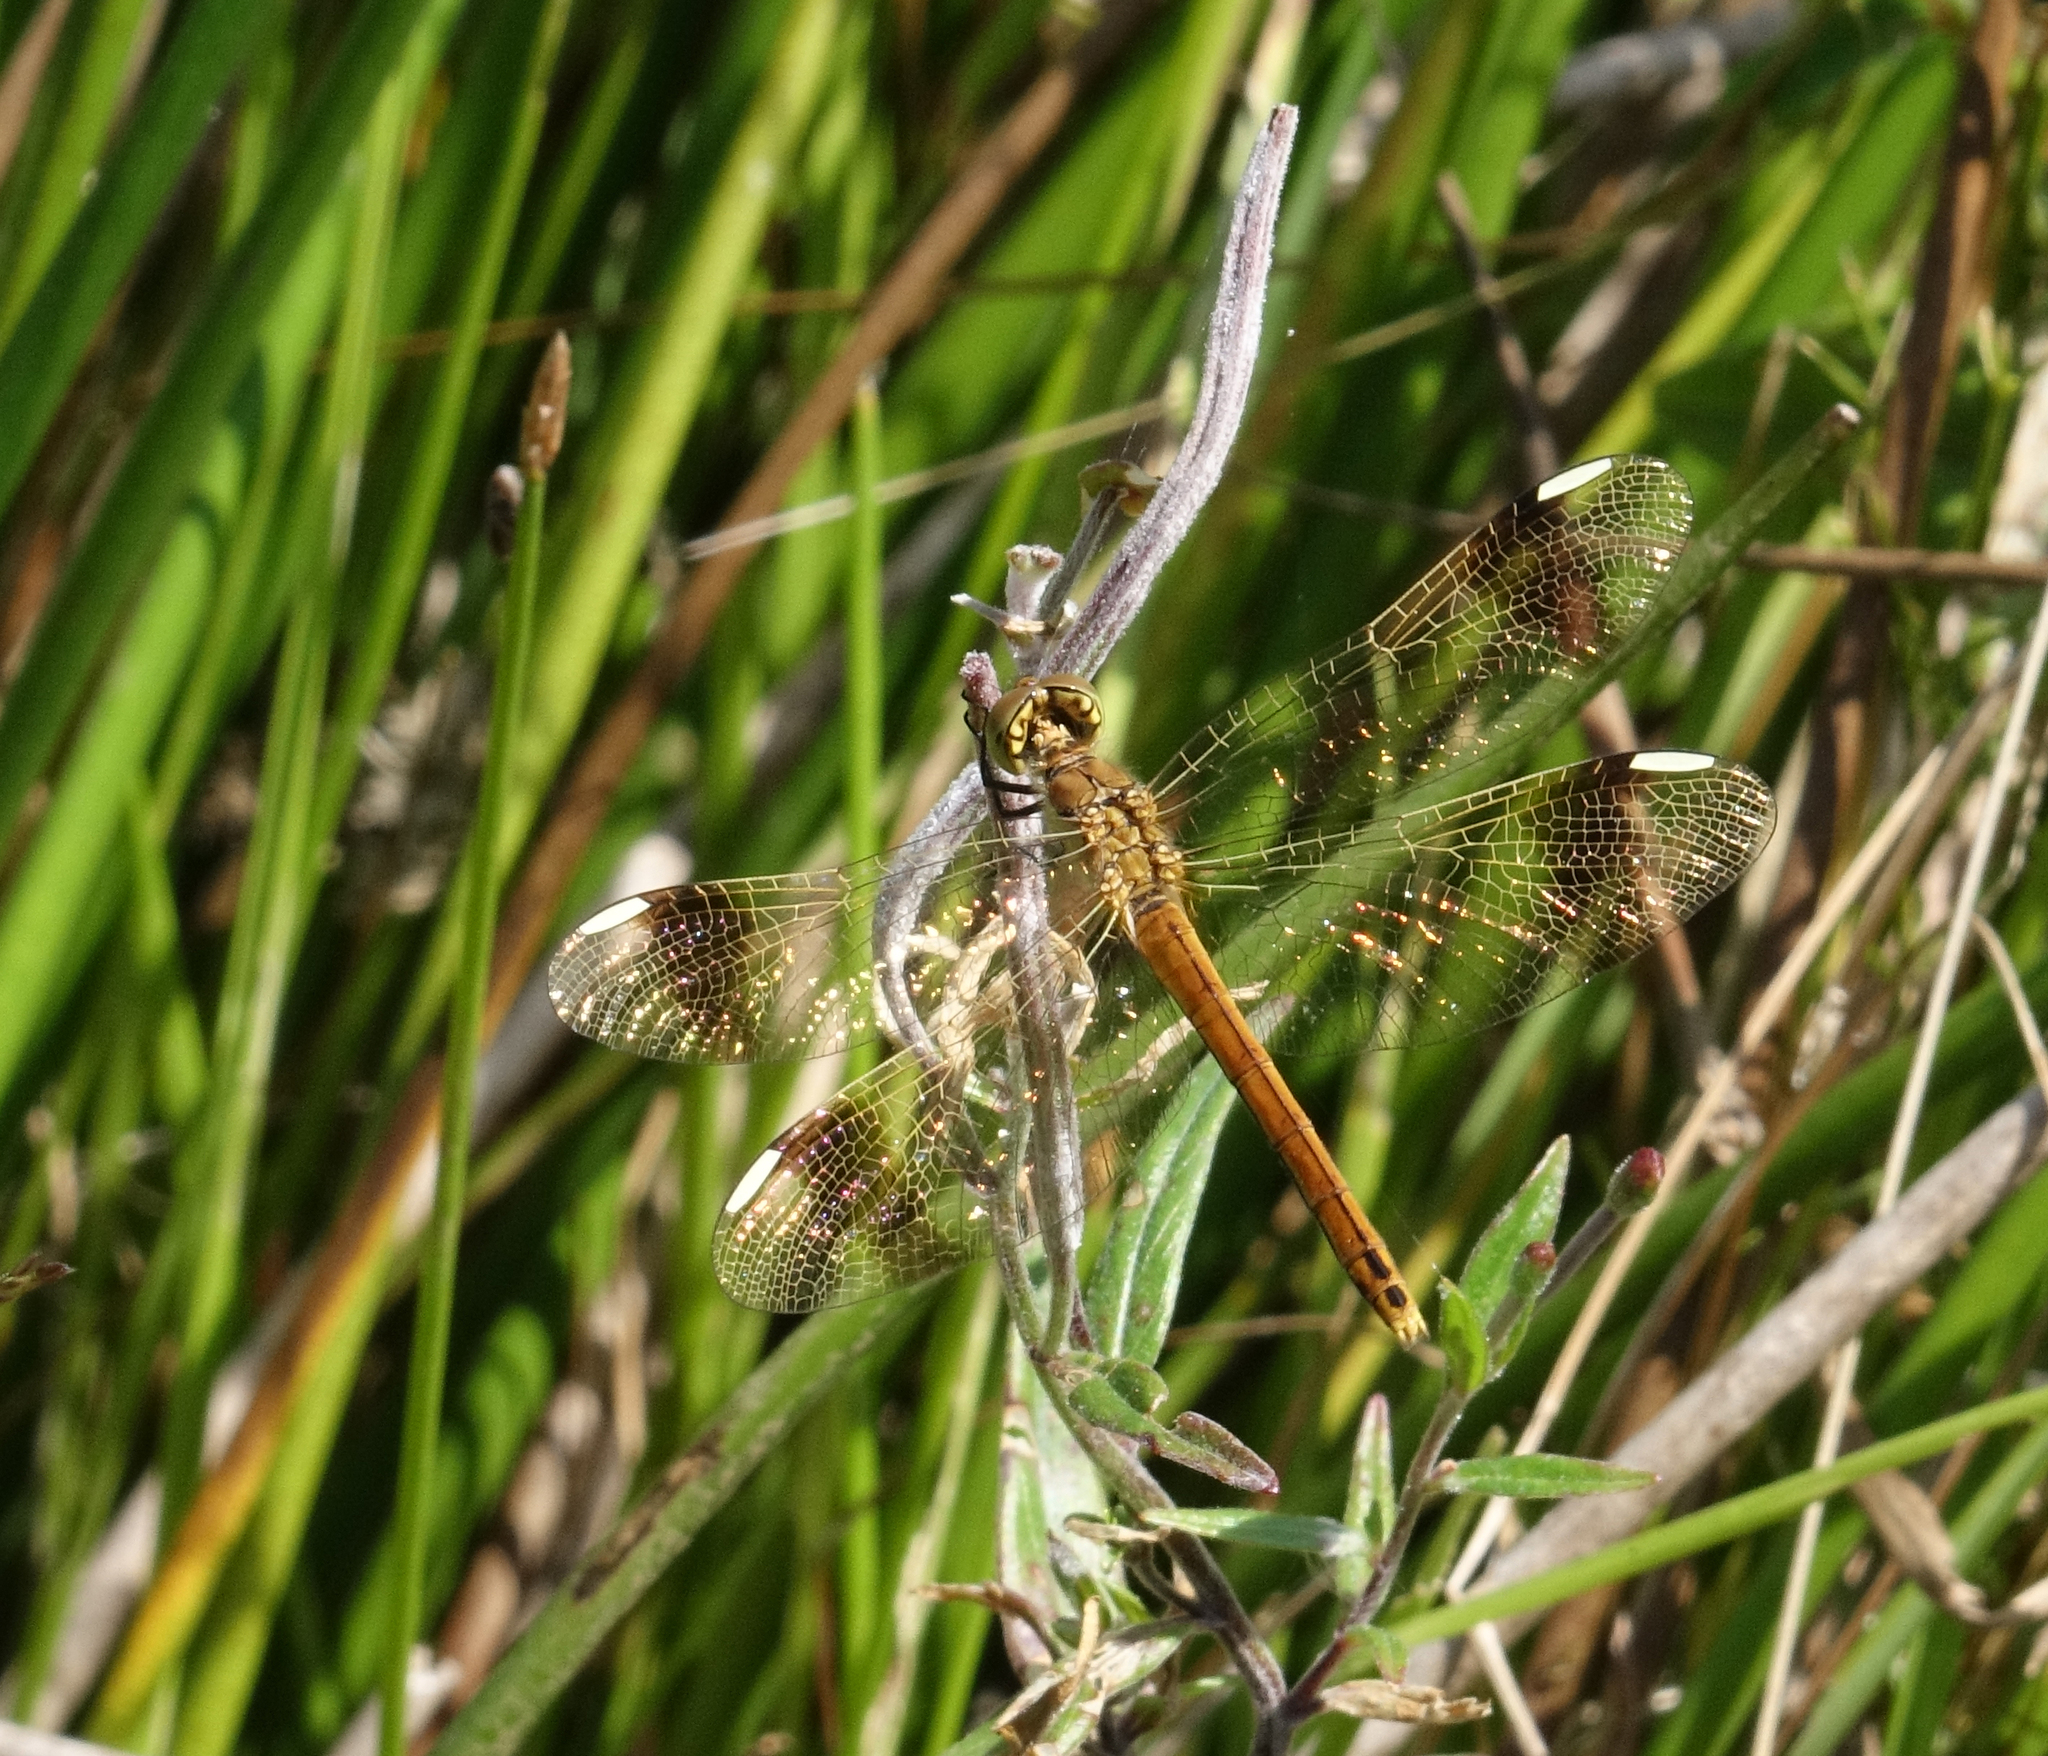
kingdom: Animalia
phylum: Arthropoda
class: Insecta
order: Odonata
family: Libellulidae
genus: Sympetrum
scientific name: Sympetrum pedemontanum
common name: Banded darter
